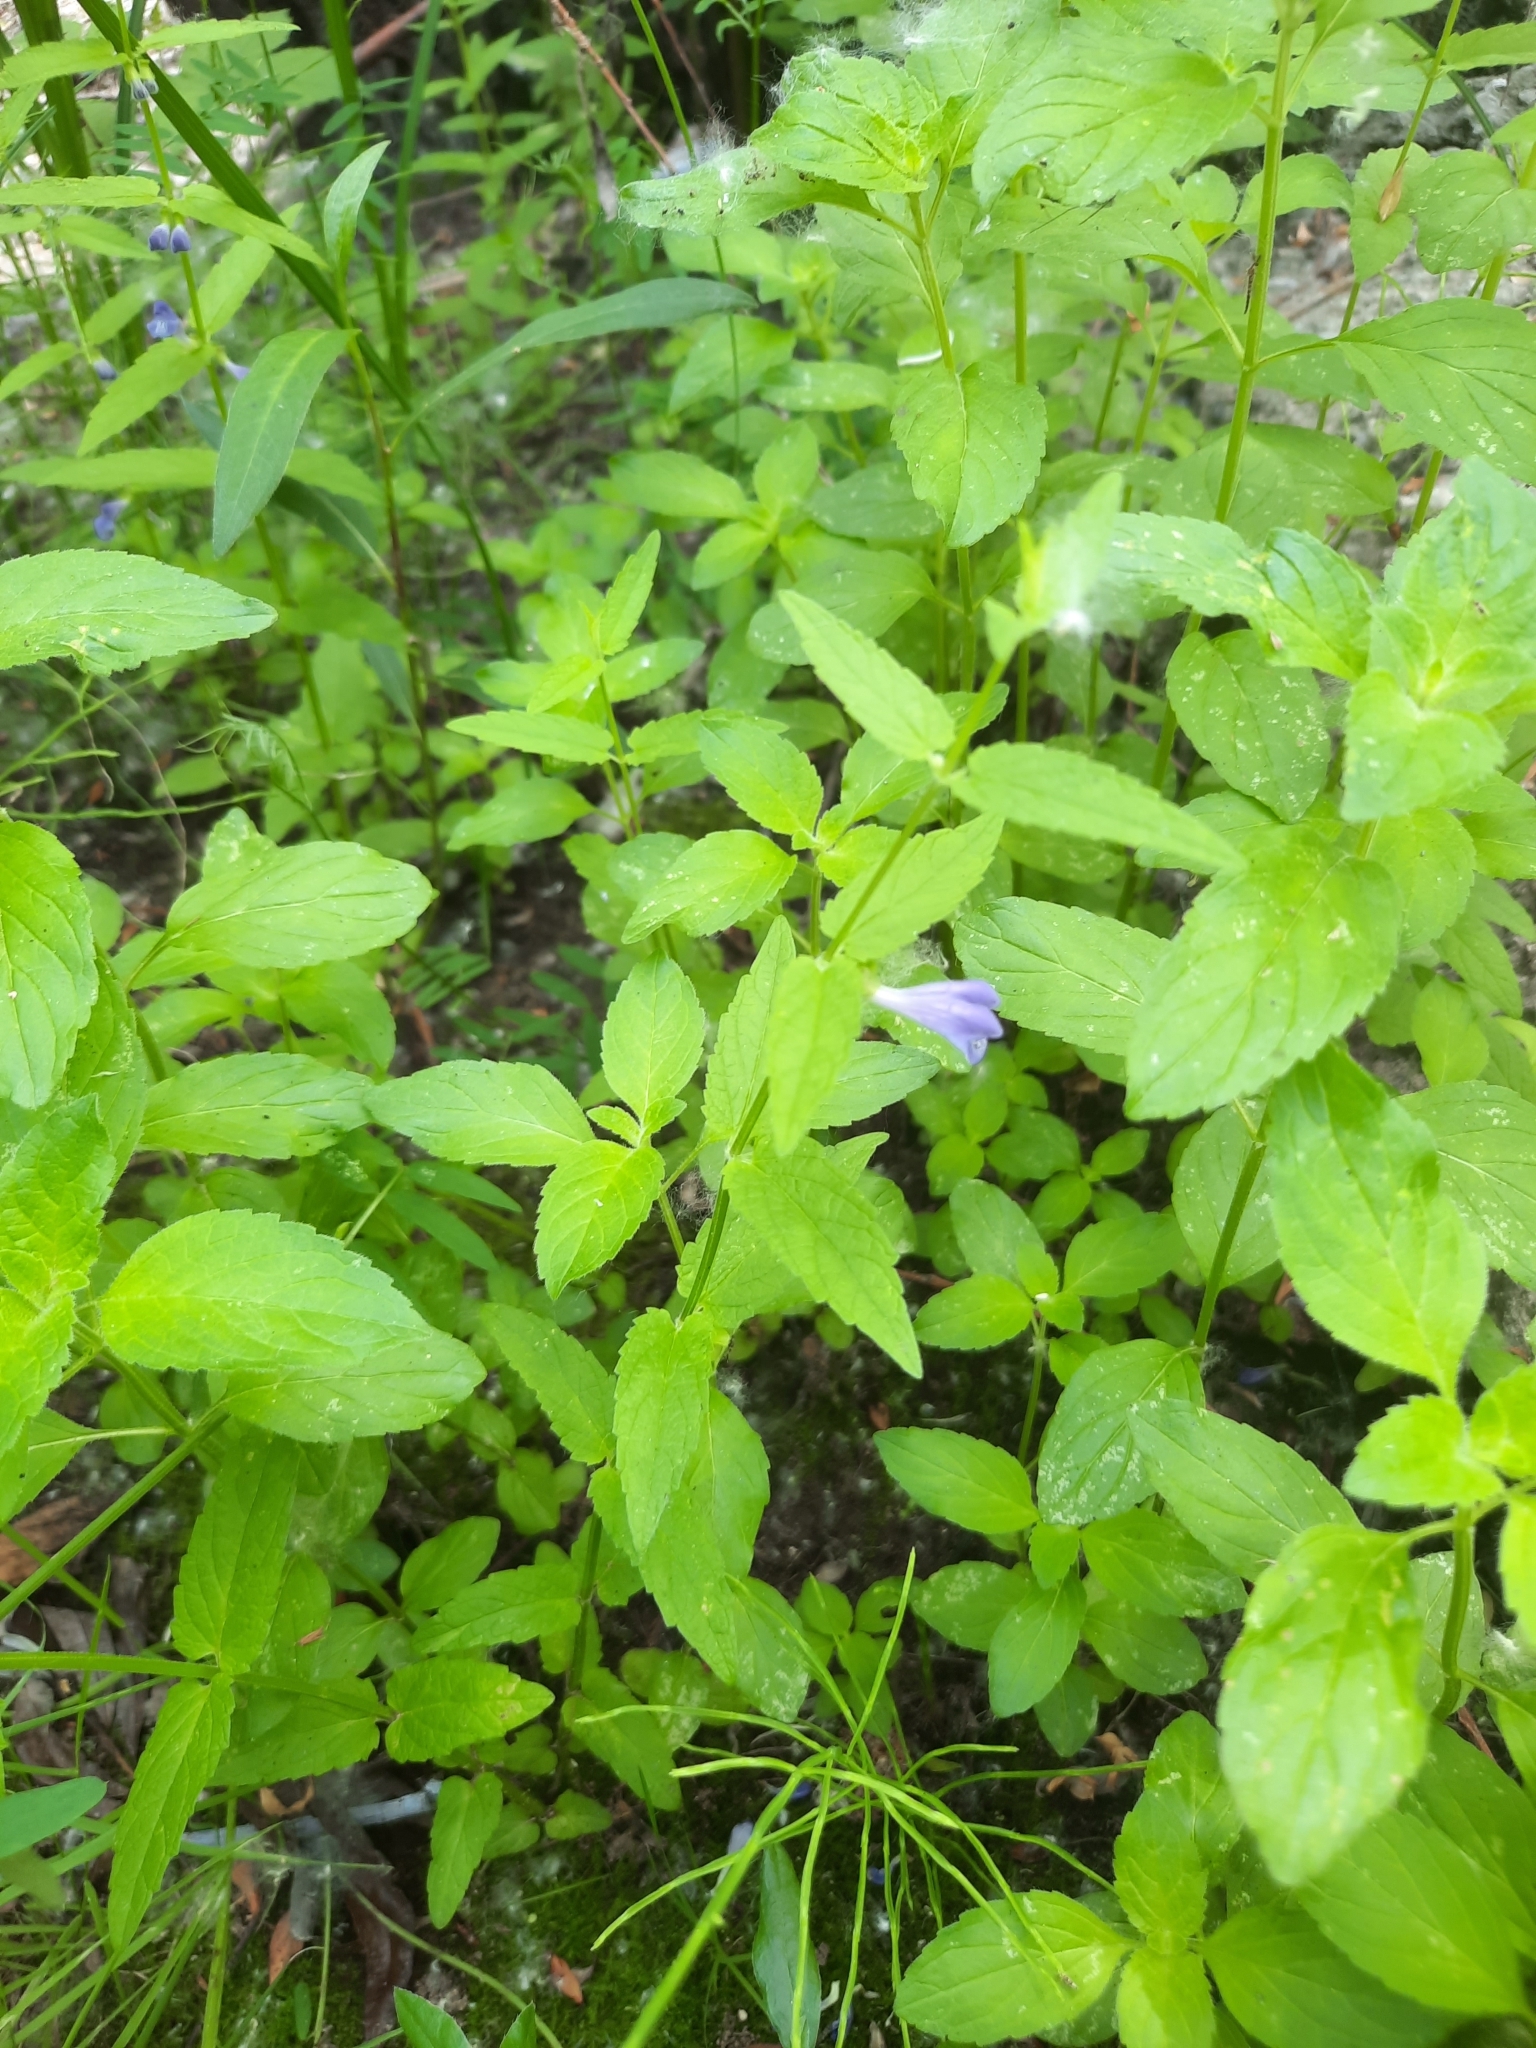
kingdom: Plantae
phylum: Tracheophyta
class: Magnoliopsida
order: Lamiales
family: Lamiaceae
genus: Scutellaria
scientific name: Scutellaria galericulata
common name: Skullcap
